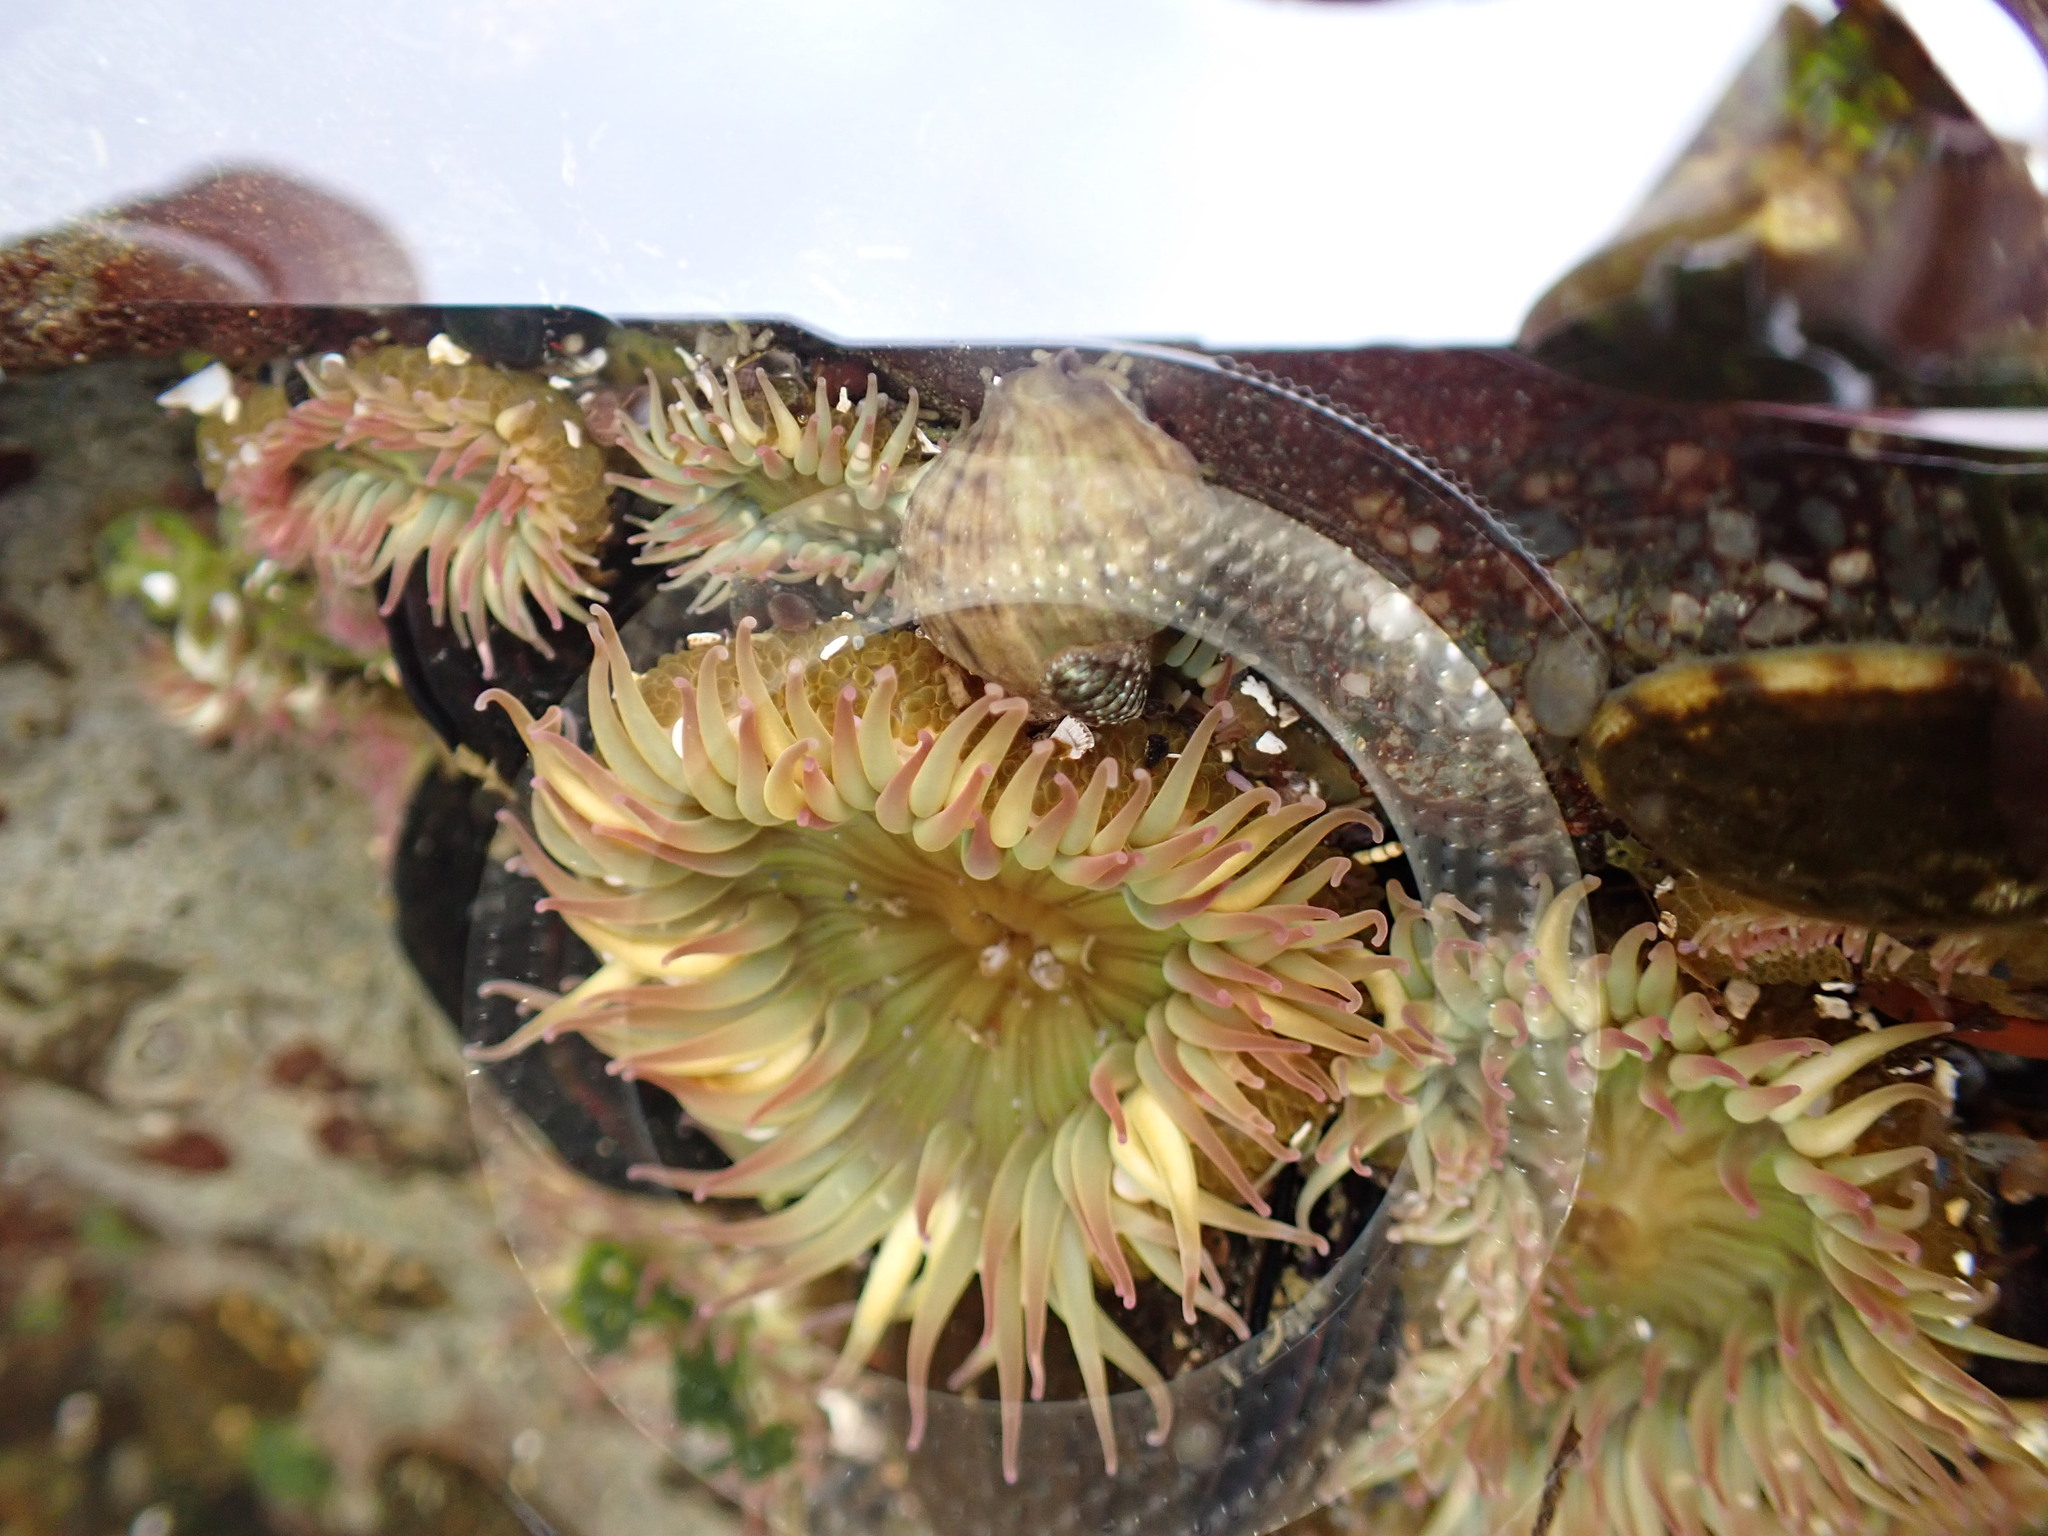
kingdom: Animalia
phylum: Cnidaria
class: Anthozoa
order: Actiniaria
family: Actiniidae
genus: Anthopleura
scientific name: Anthopleura elegantissima
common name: Clonal anemone
